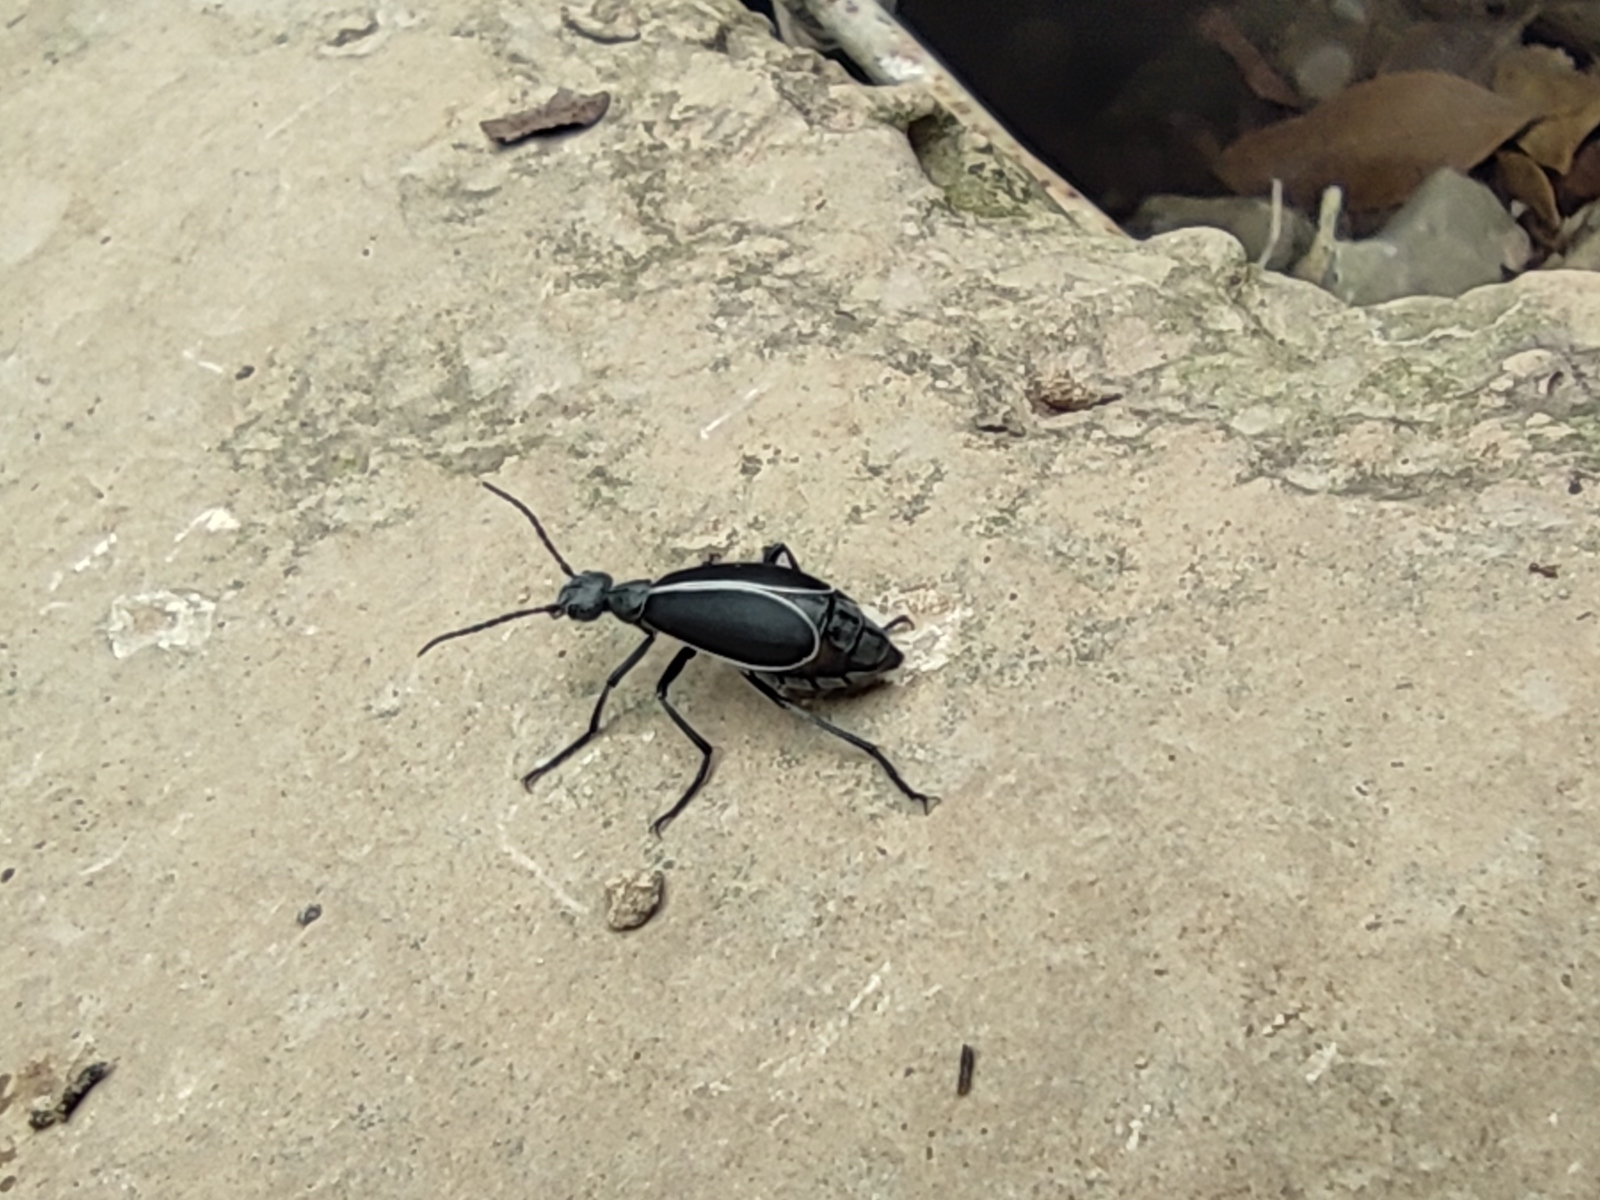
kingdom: Animalia
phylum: Arthropoda
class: Insecta
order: Coleoptera
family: Meloidae
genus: Epicauta
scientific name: Epicauta subatra
